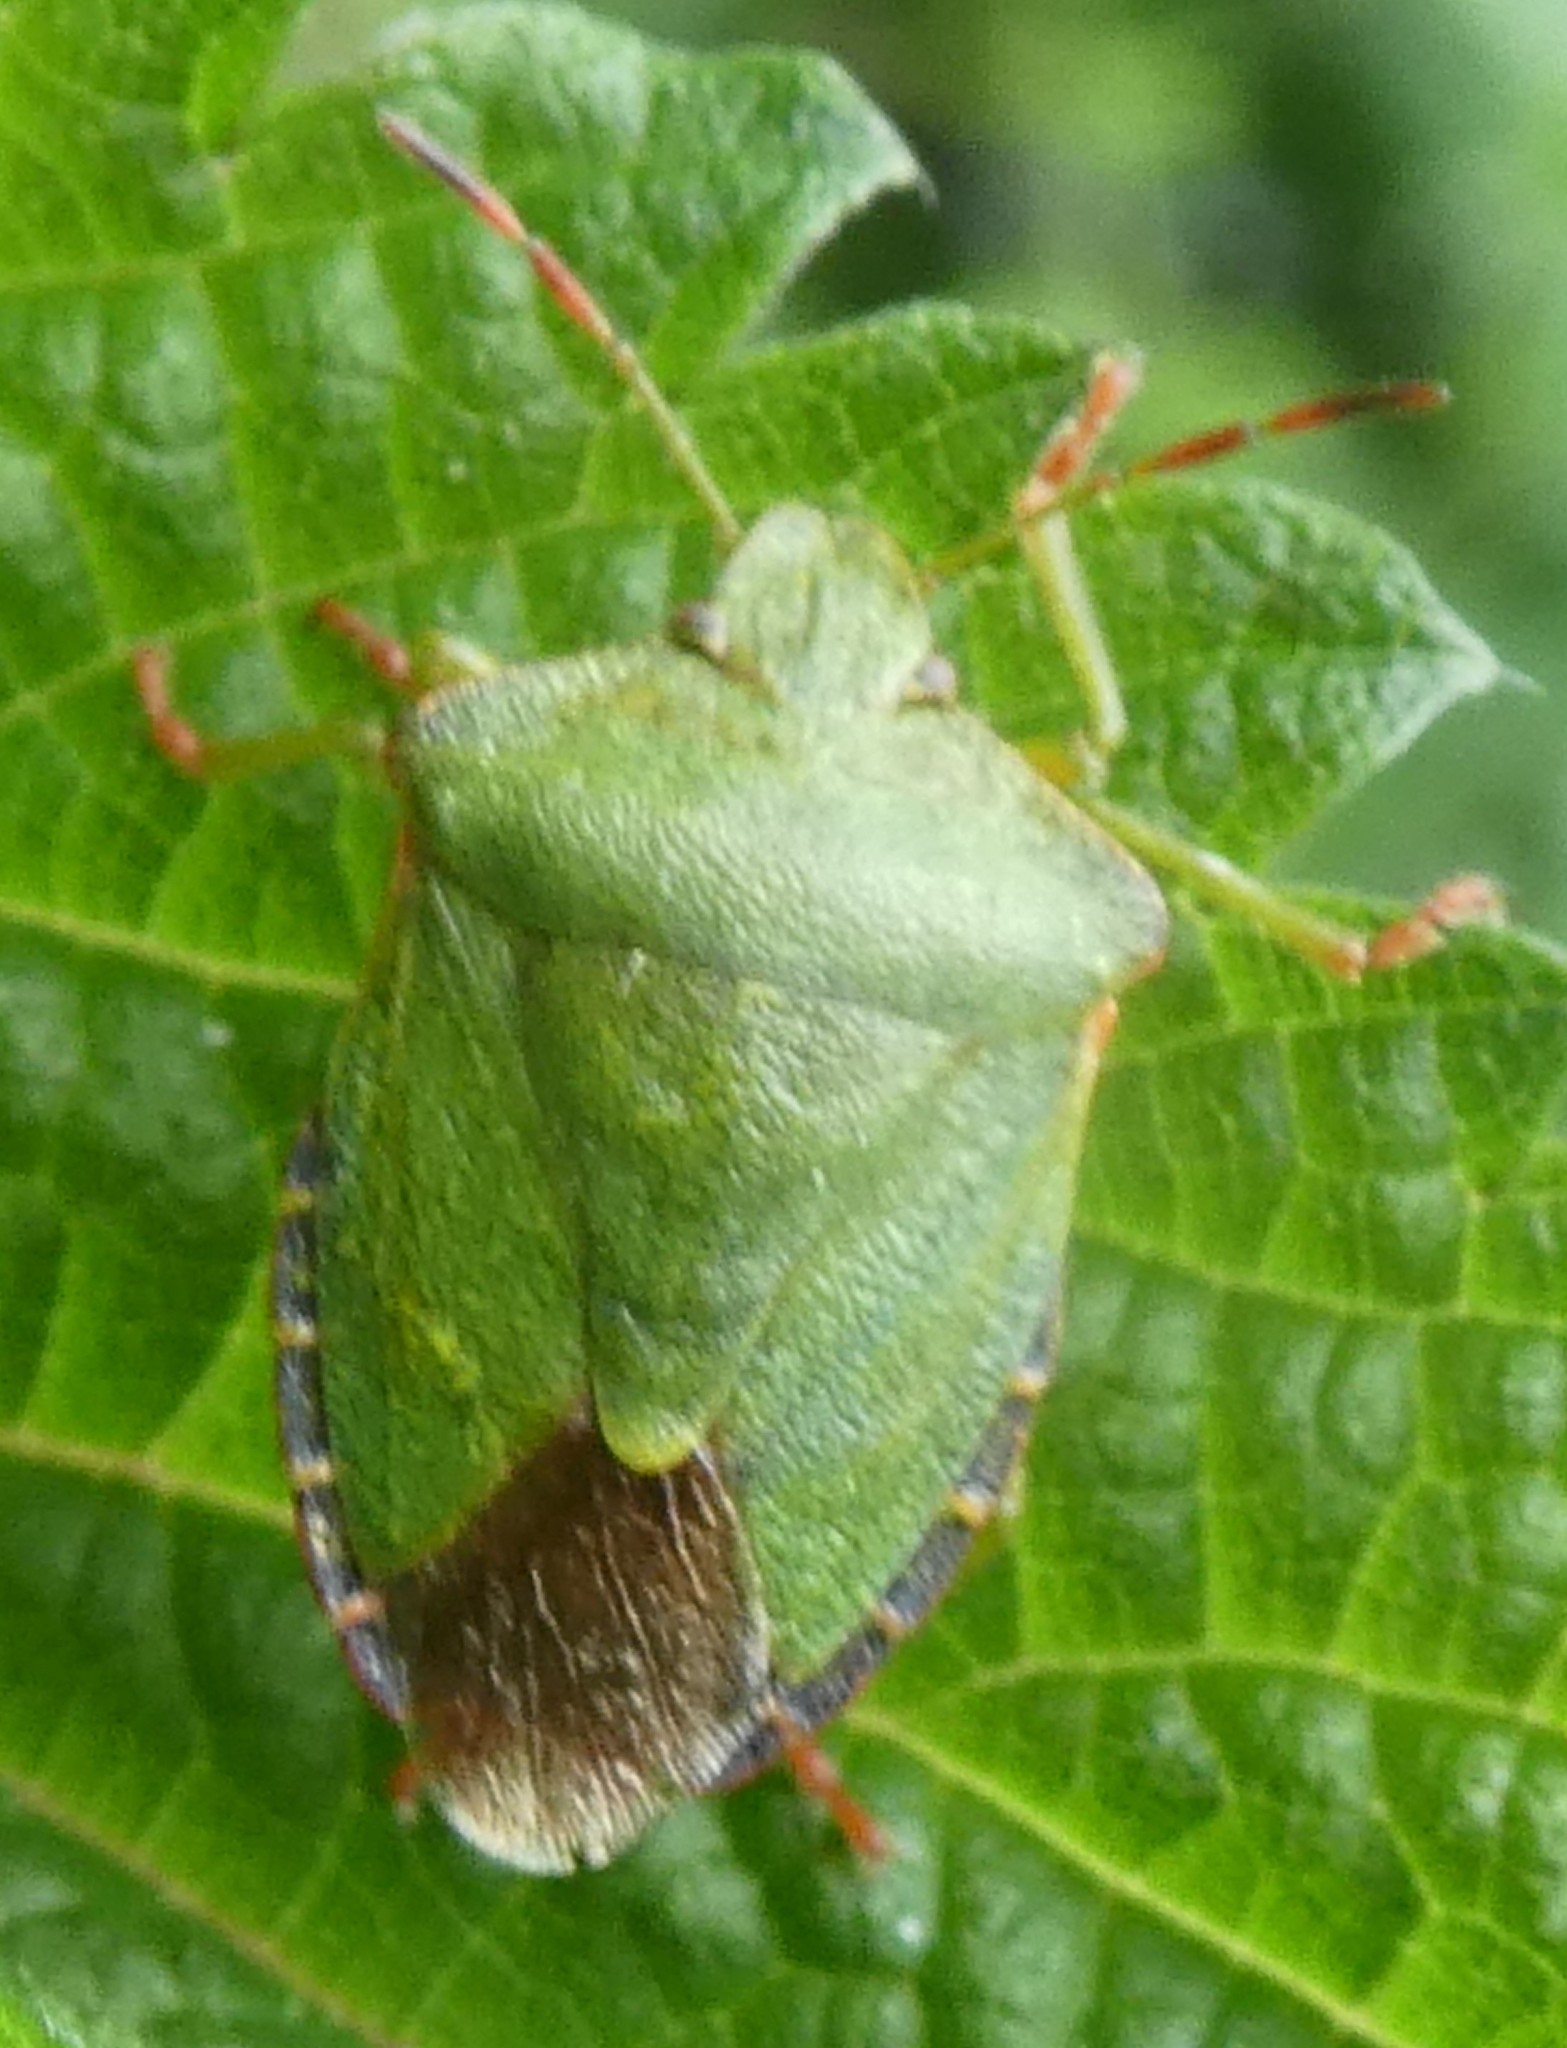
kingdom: Animalia
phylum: Arthropoda
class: Insecta
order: Hemiptera
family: Pentatomidae
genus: Palomena
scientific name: Palomena prasina
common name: Green shieldbug
